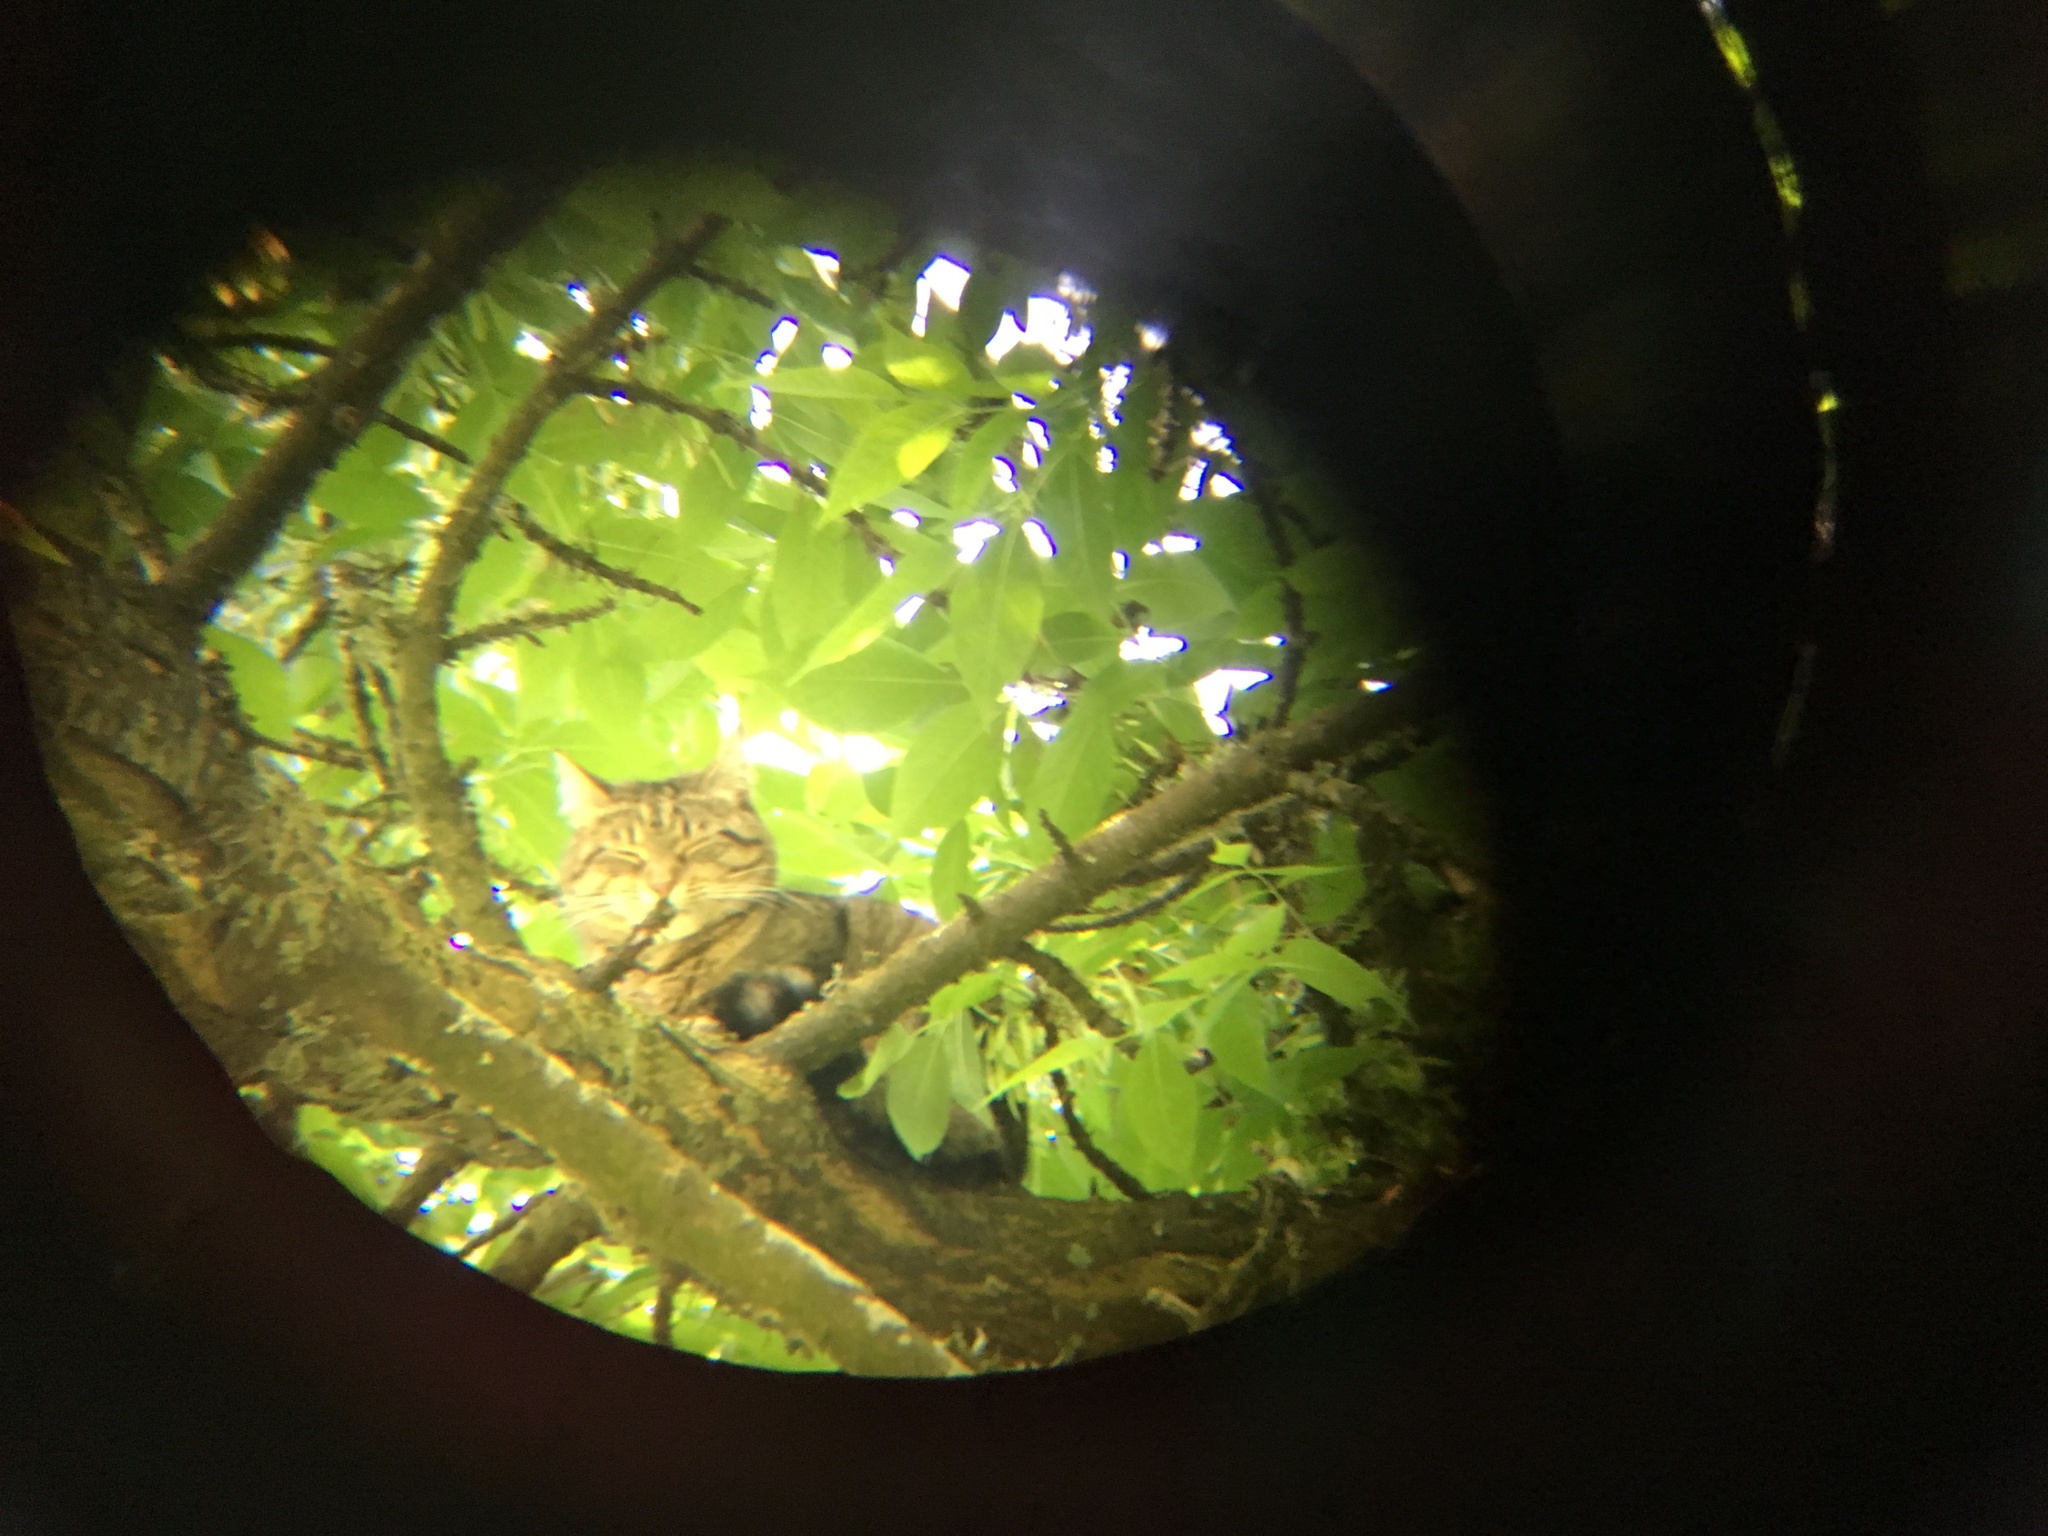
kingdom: Animalia
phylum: Chordata
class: Mammalia
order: Carnivora
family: Felidae
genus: Felis
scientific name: Felis catus
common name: Domestic cat
